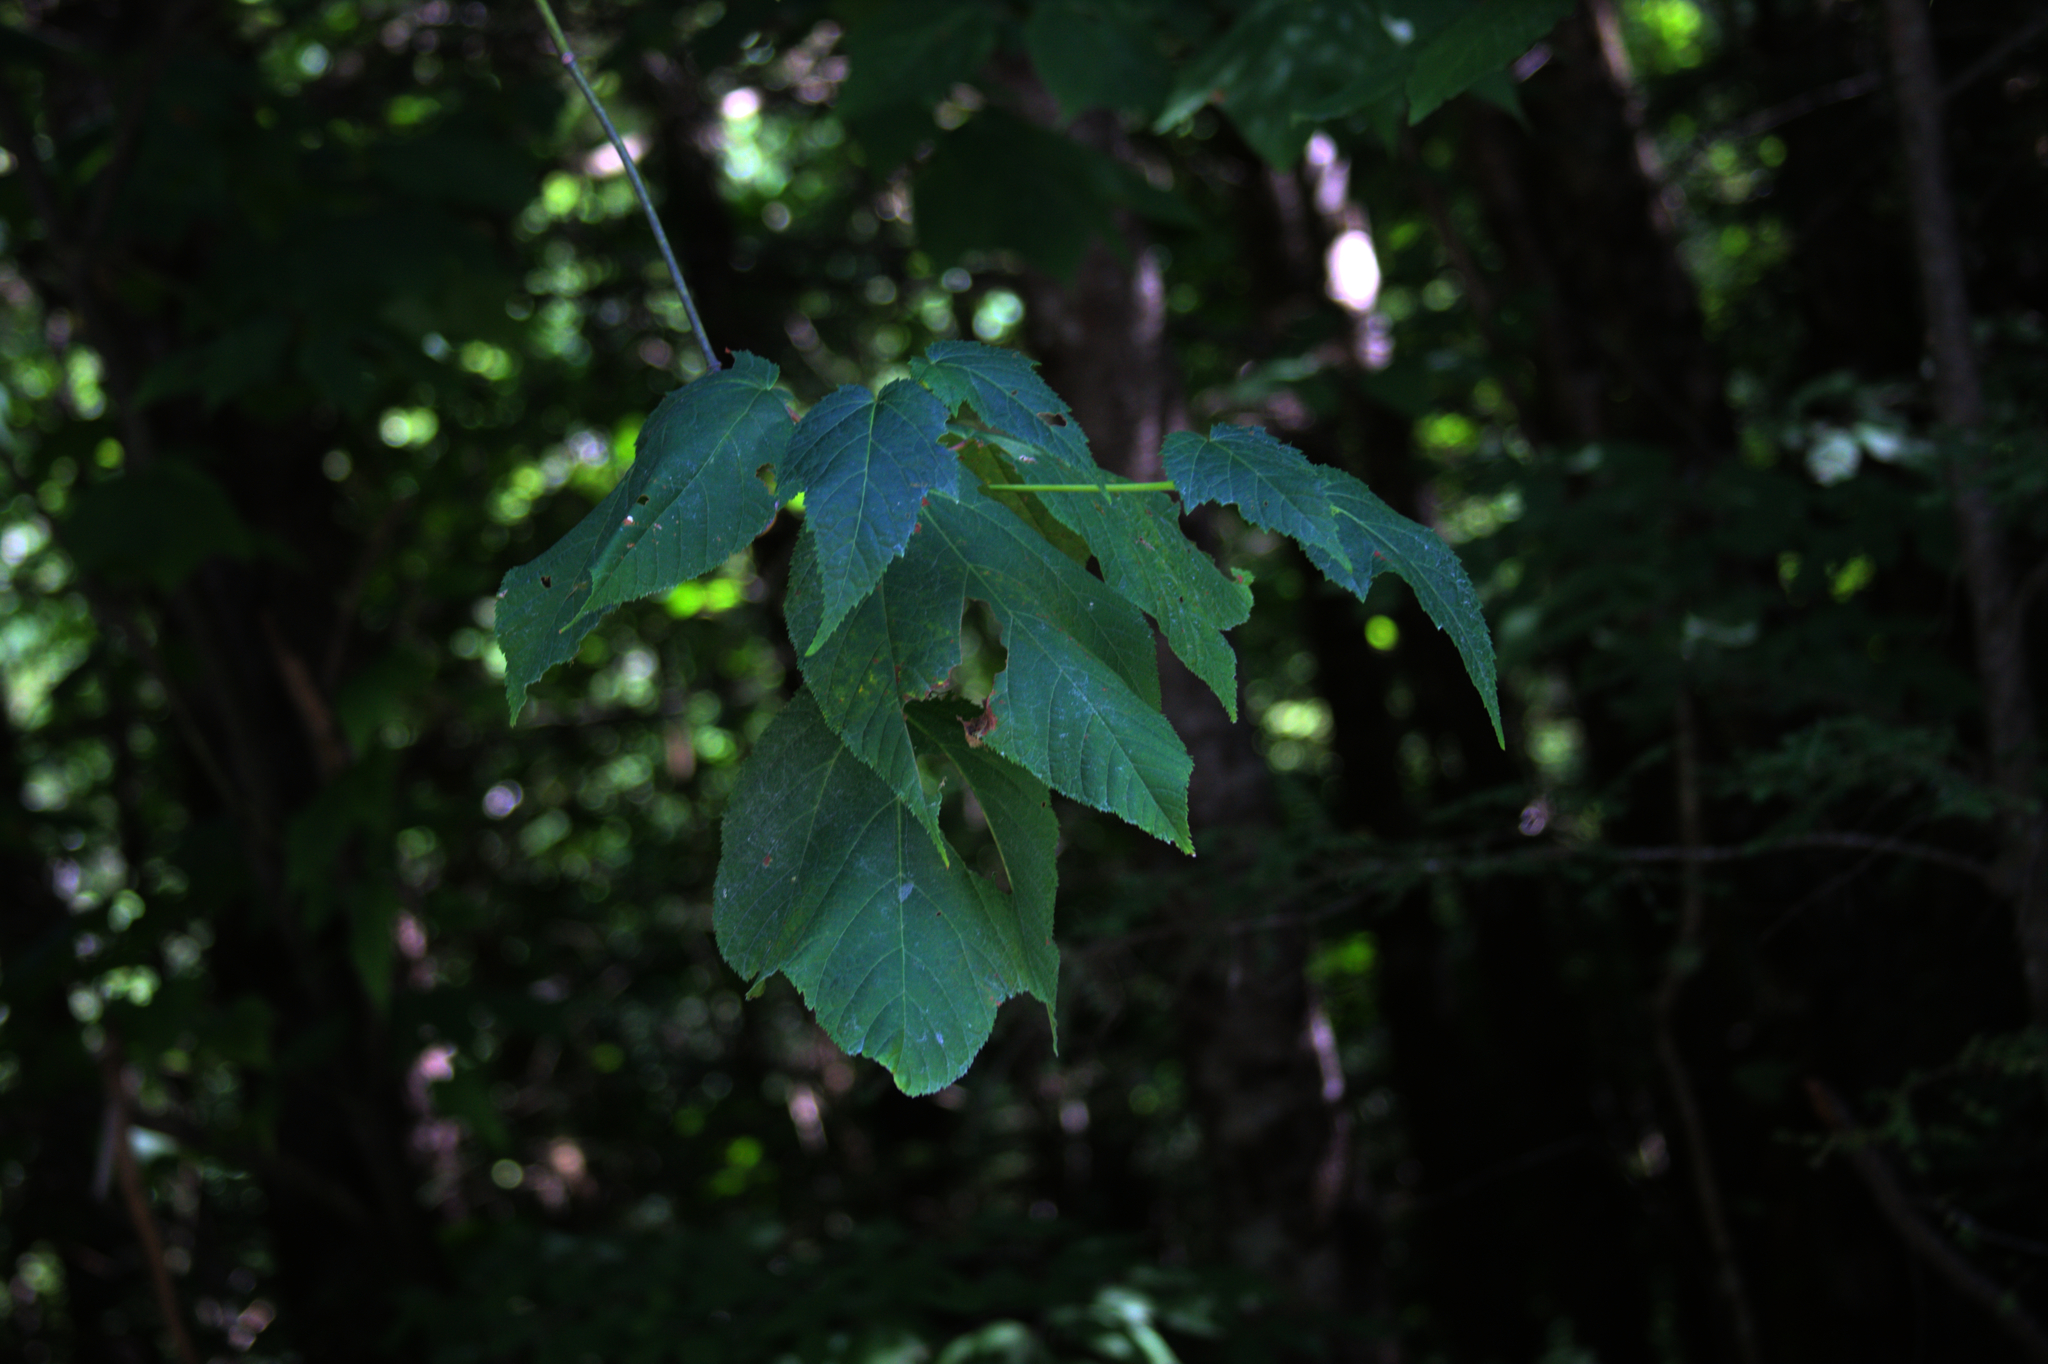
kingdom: Plantae
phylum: Tracheophyta
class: Magnoliopsida
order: Sapindales
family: Sapindaceae
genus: Acer
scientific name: Acer pensylvanicum
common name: Moosewood
